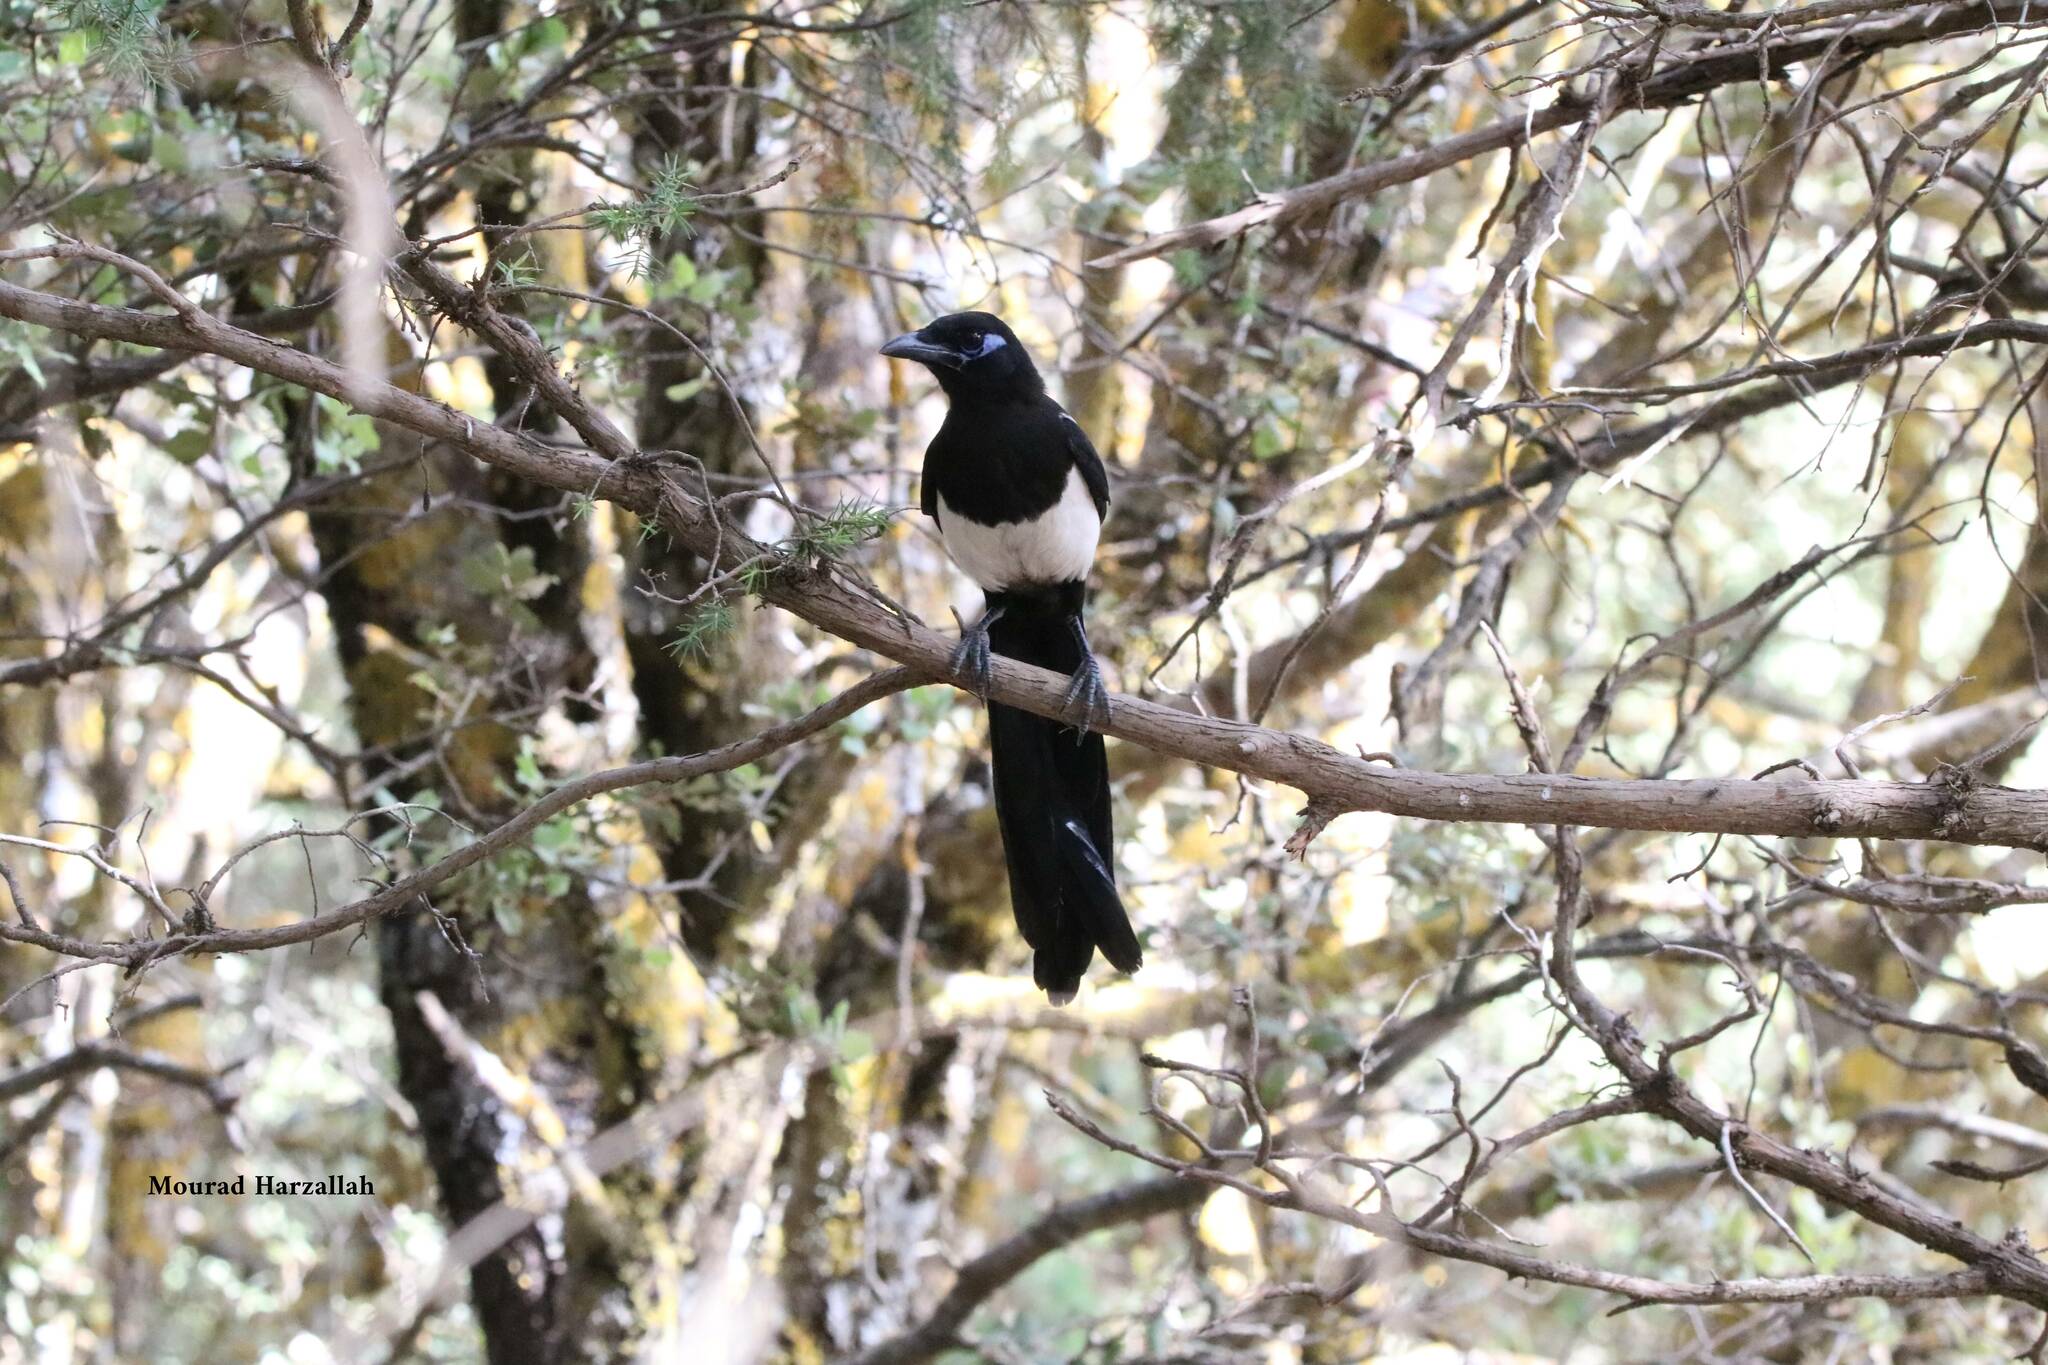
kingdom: Animalia
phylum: Chordata
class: Aves
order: Passeriformes
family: Corvidae
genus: Pica
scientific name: Pica mauritanica
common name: Maghreb magpie
